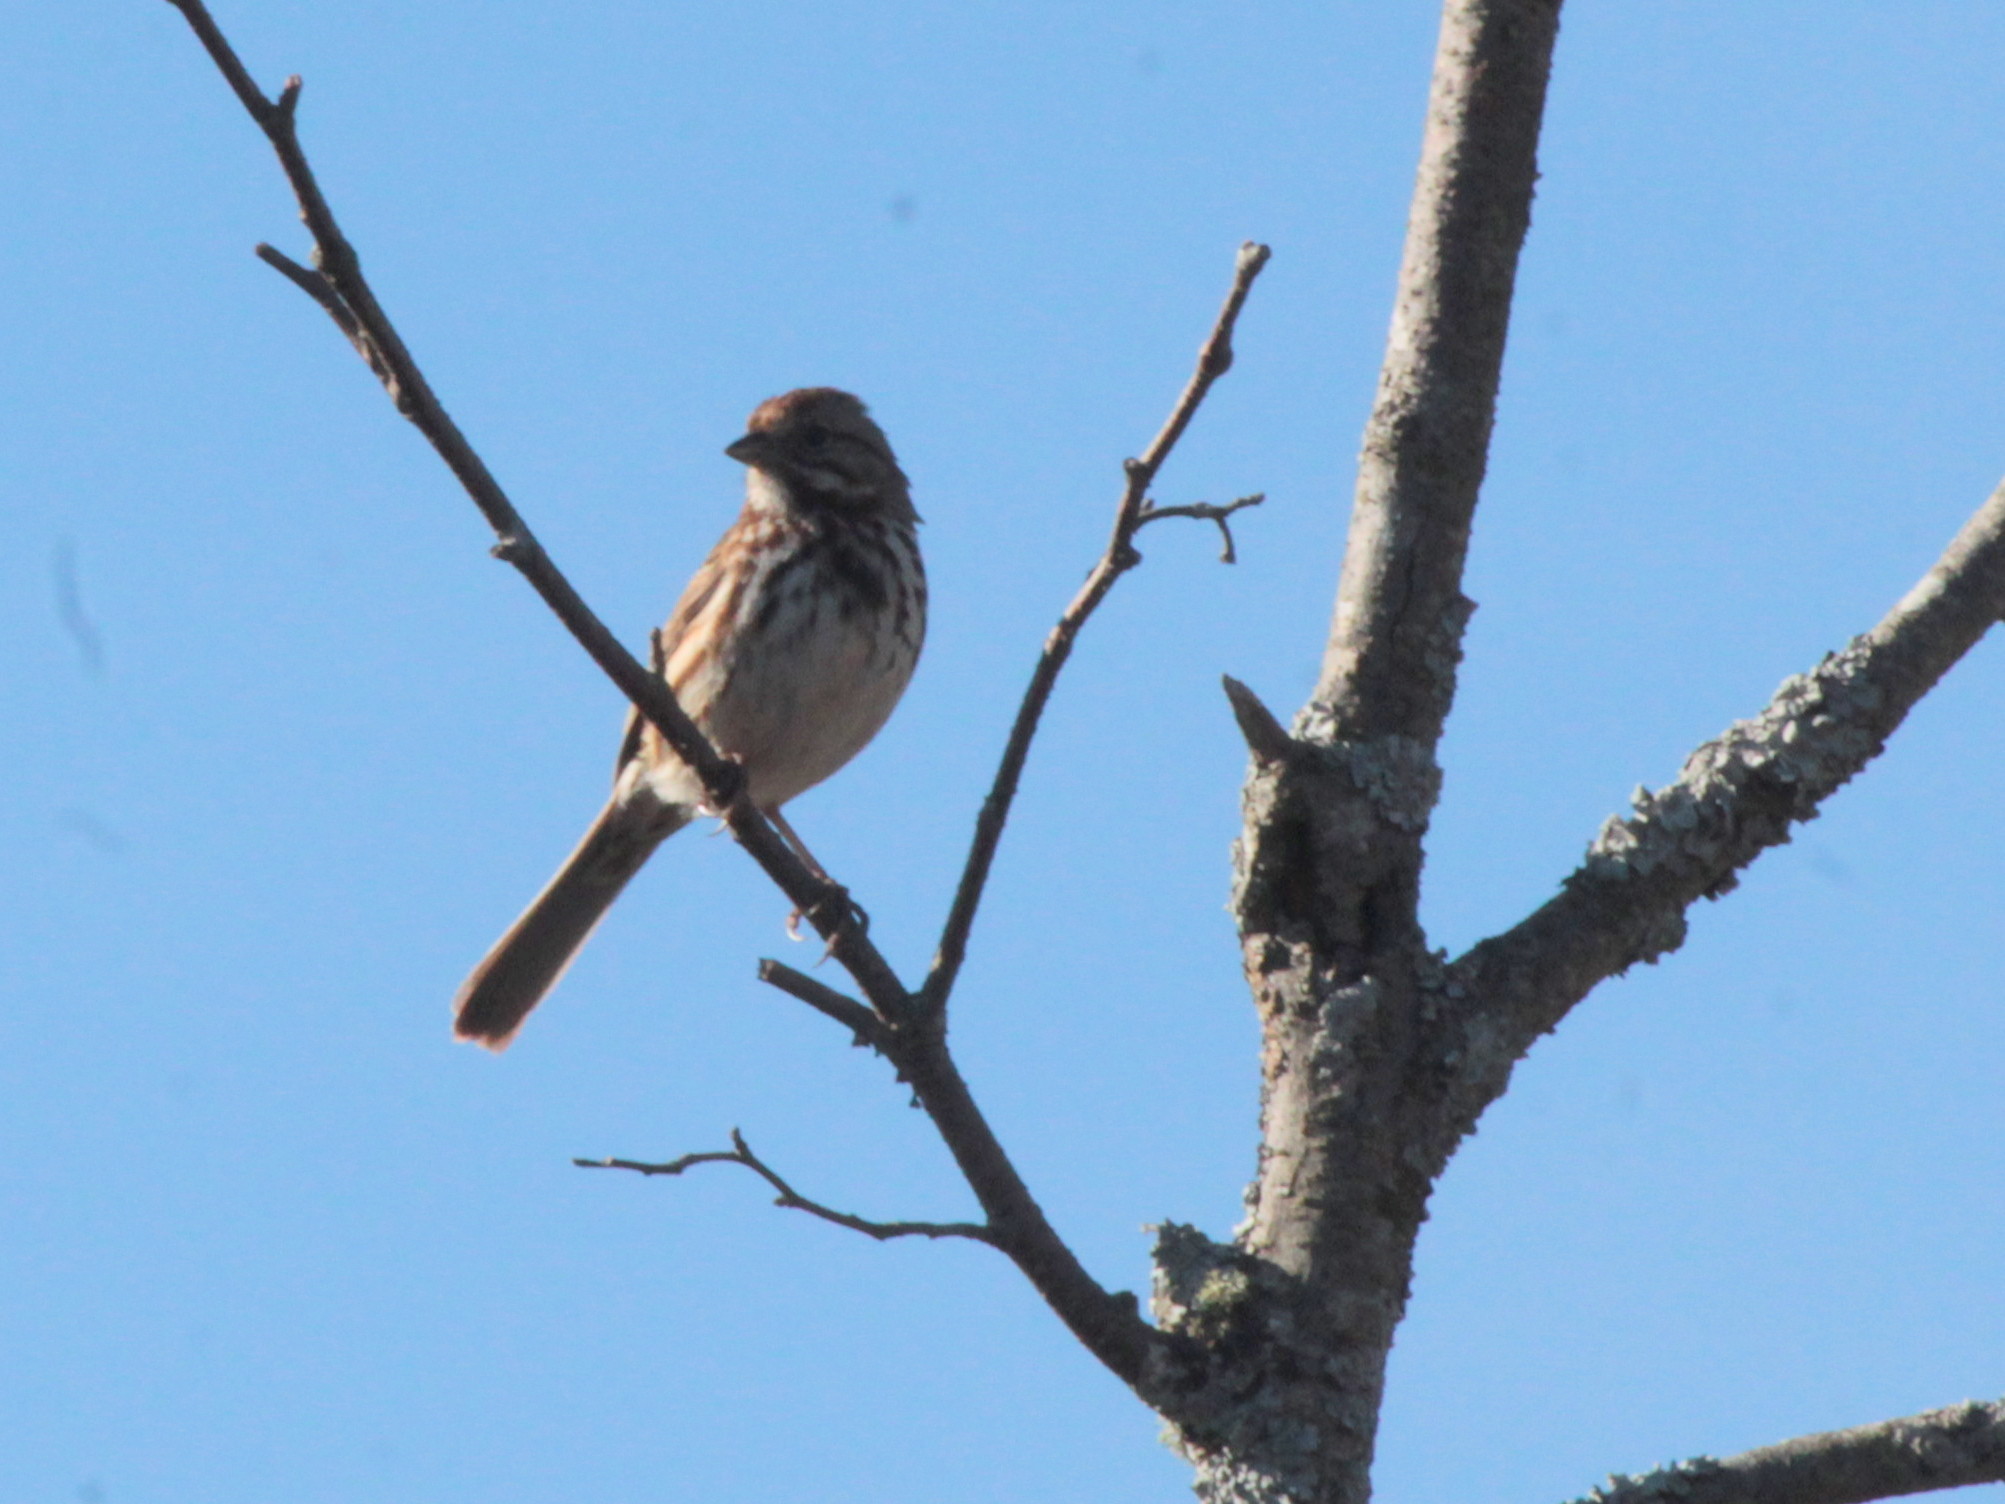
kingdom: Animalia
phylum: Chordata
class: Aves
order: Passeriformes
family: Passerellidae
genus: Melospiza
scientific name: Melospiza melodia
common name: Song sparrow
